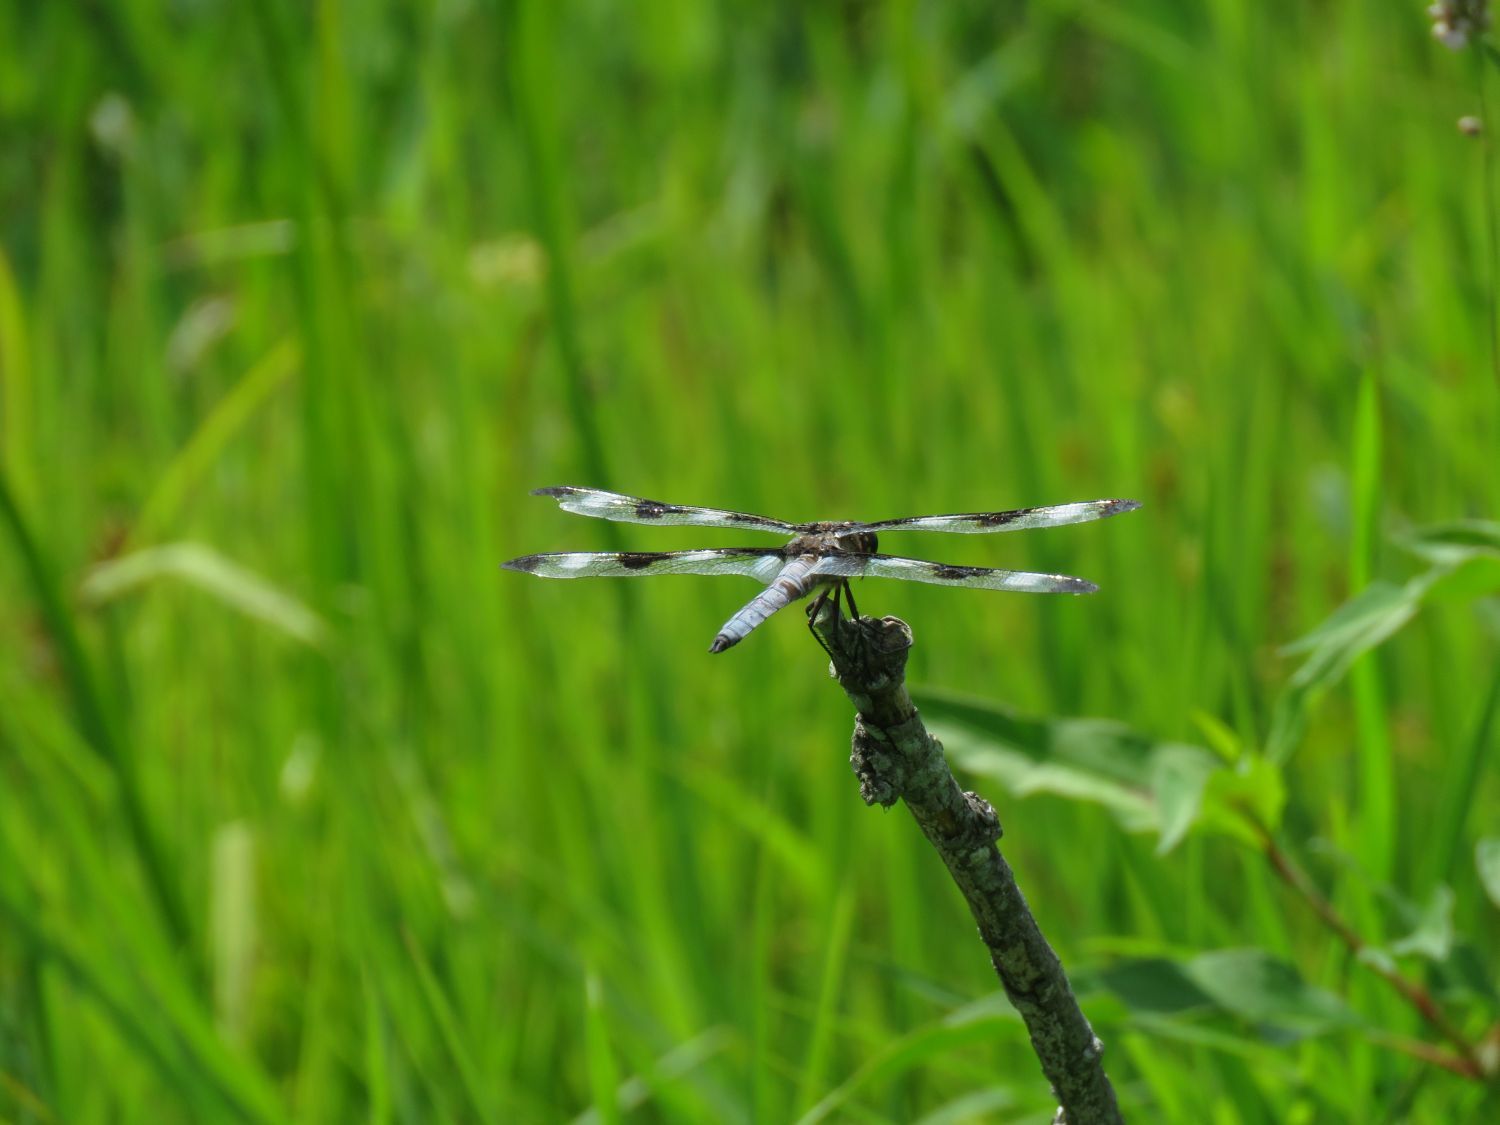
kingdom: Animalia
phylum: Arthropoda
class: Insecta
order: Odonata
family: Libellulidae
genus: Libellula
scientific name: Libellula pulchella
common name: Twelve-spotted skimmer
